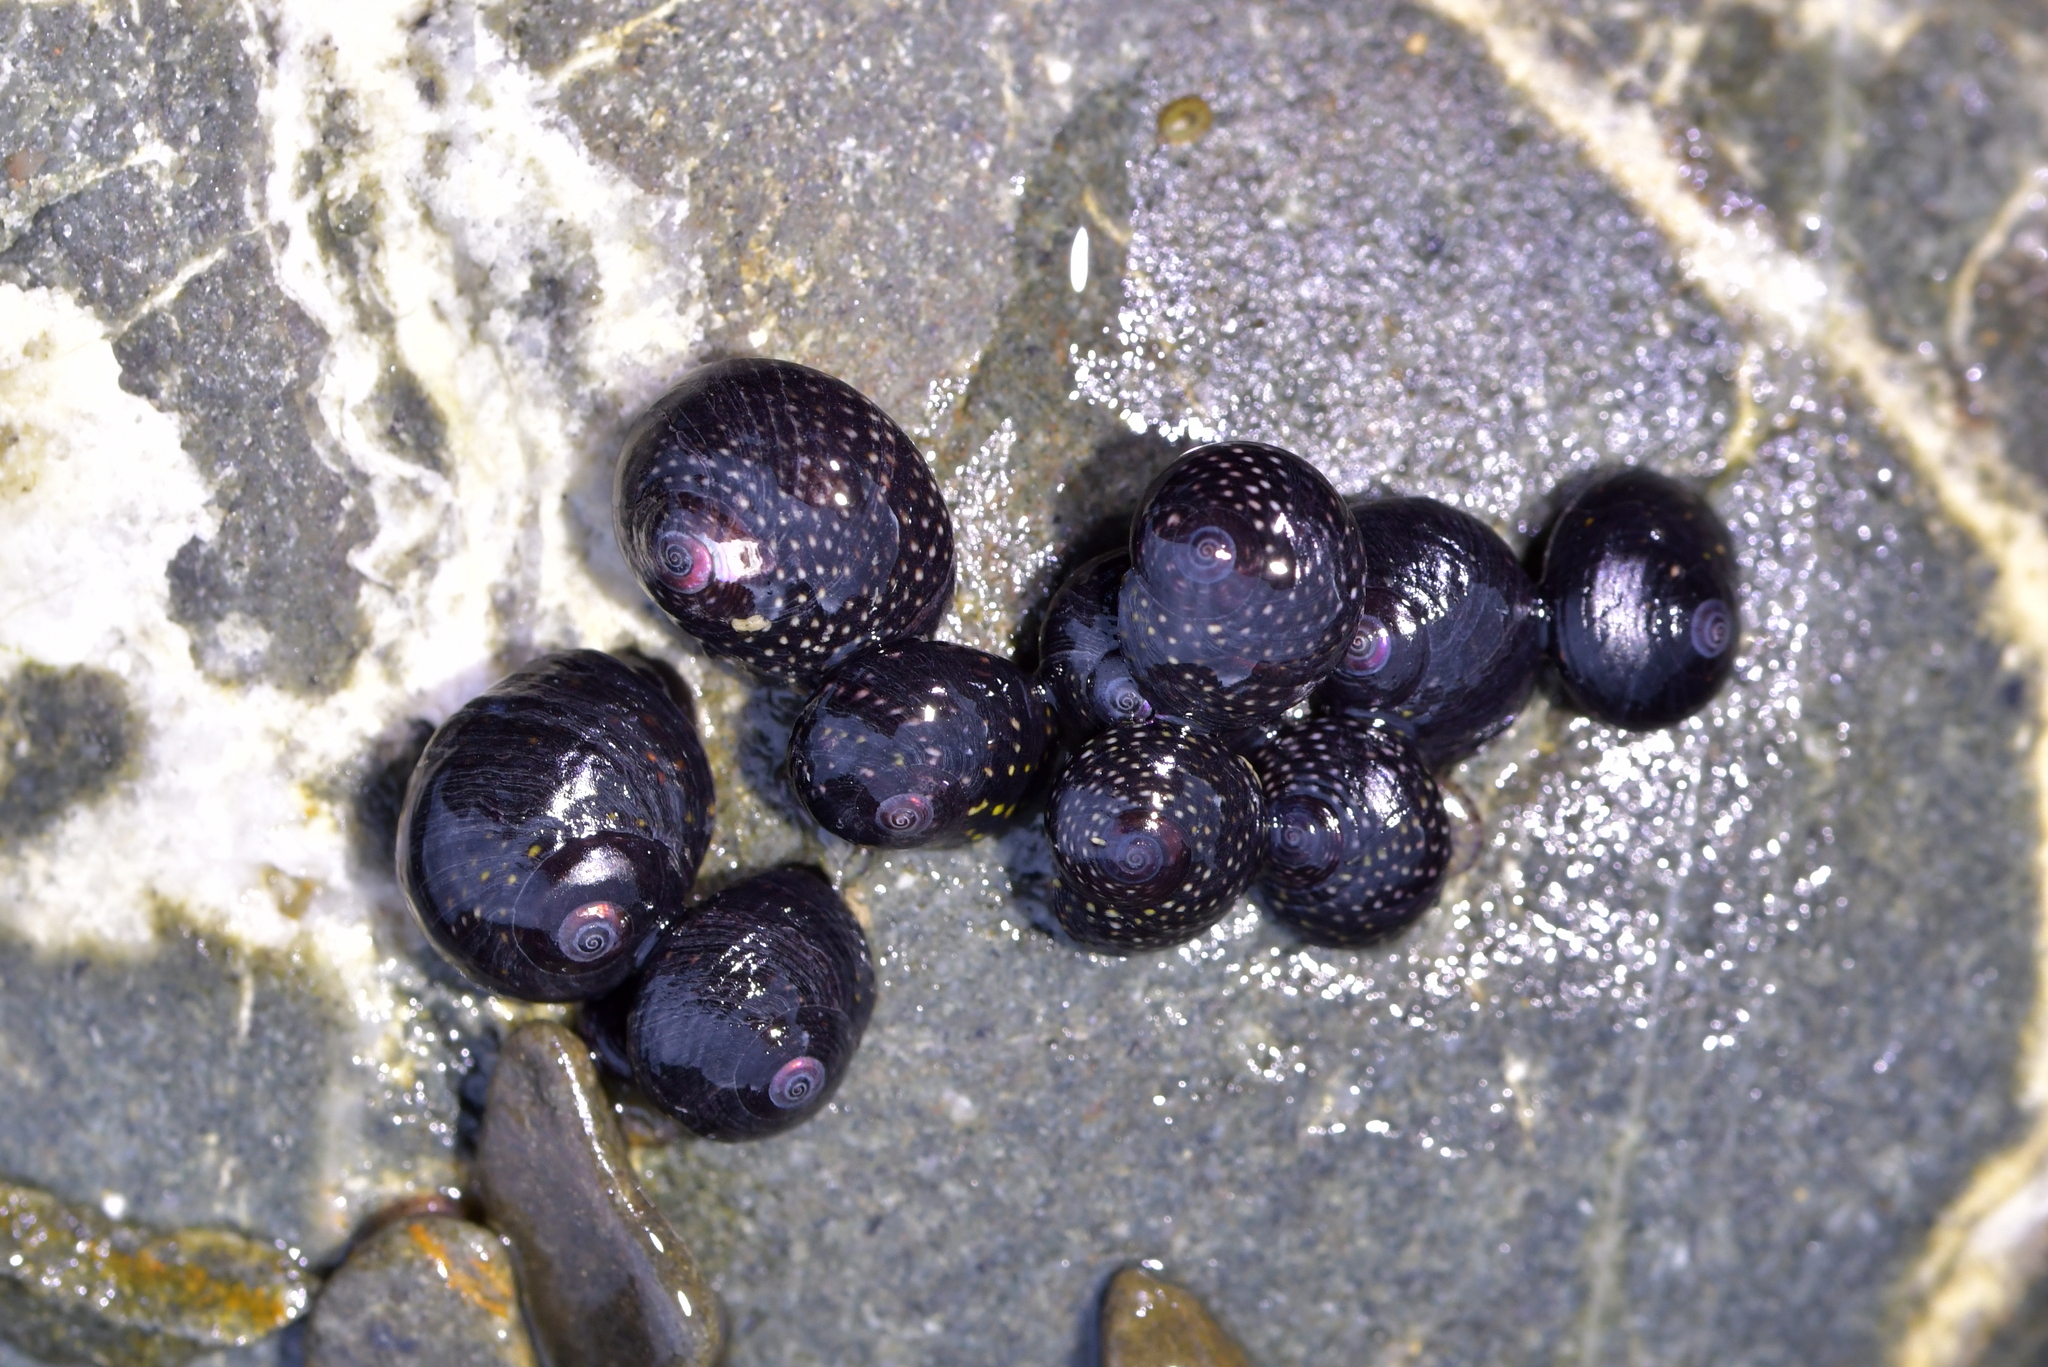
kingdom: Animalia
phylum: Mollusca
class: Gastropoda
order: Trochida
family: Trochidae
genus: Diloma
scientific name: Diloma aridum
